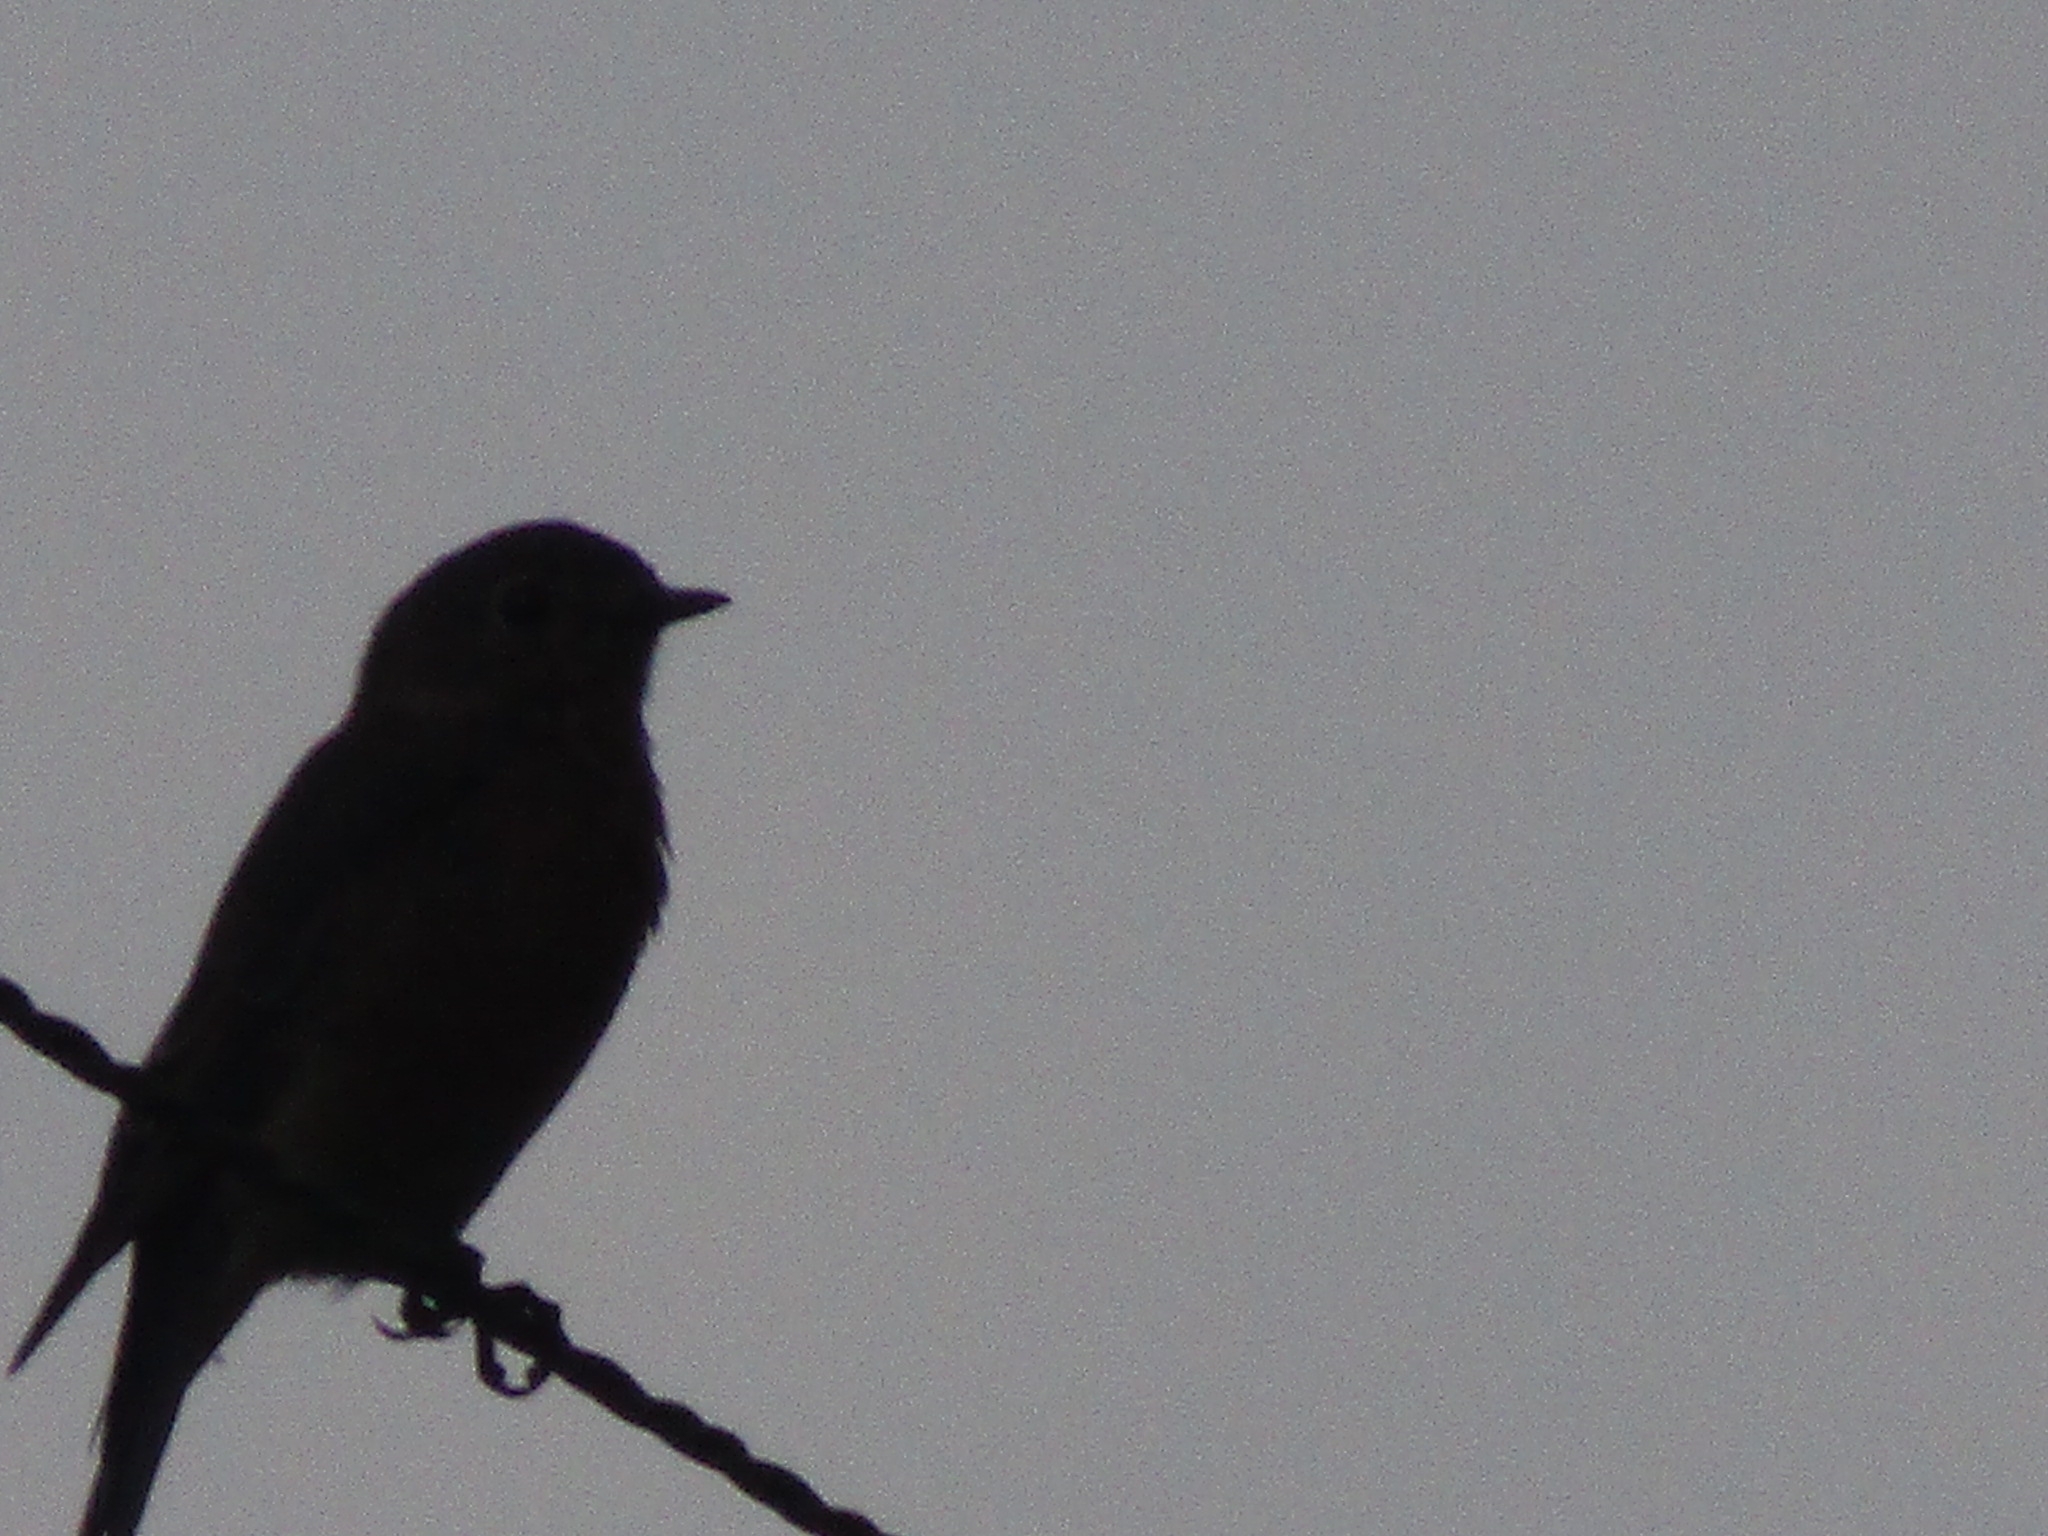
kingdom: Animalia
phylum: Chordata
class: Aves
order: Passeriformes
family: Turdidae
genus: Sialia
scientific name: Sialia sialis
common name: Eastern bluebird
